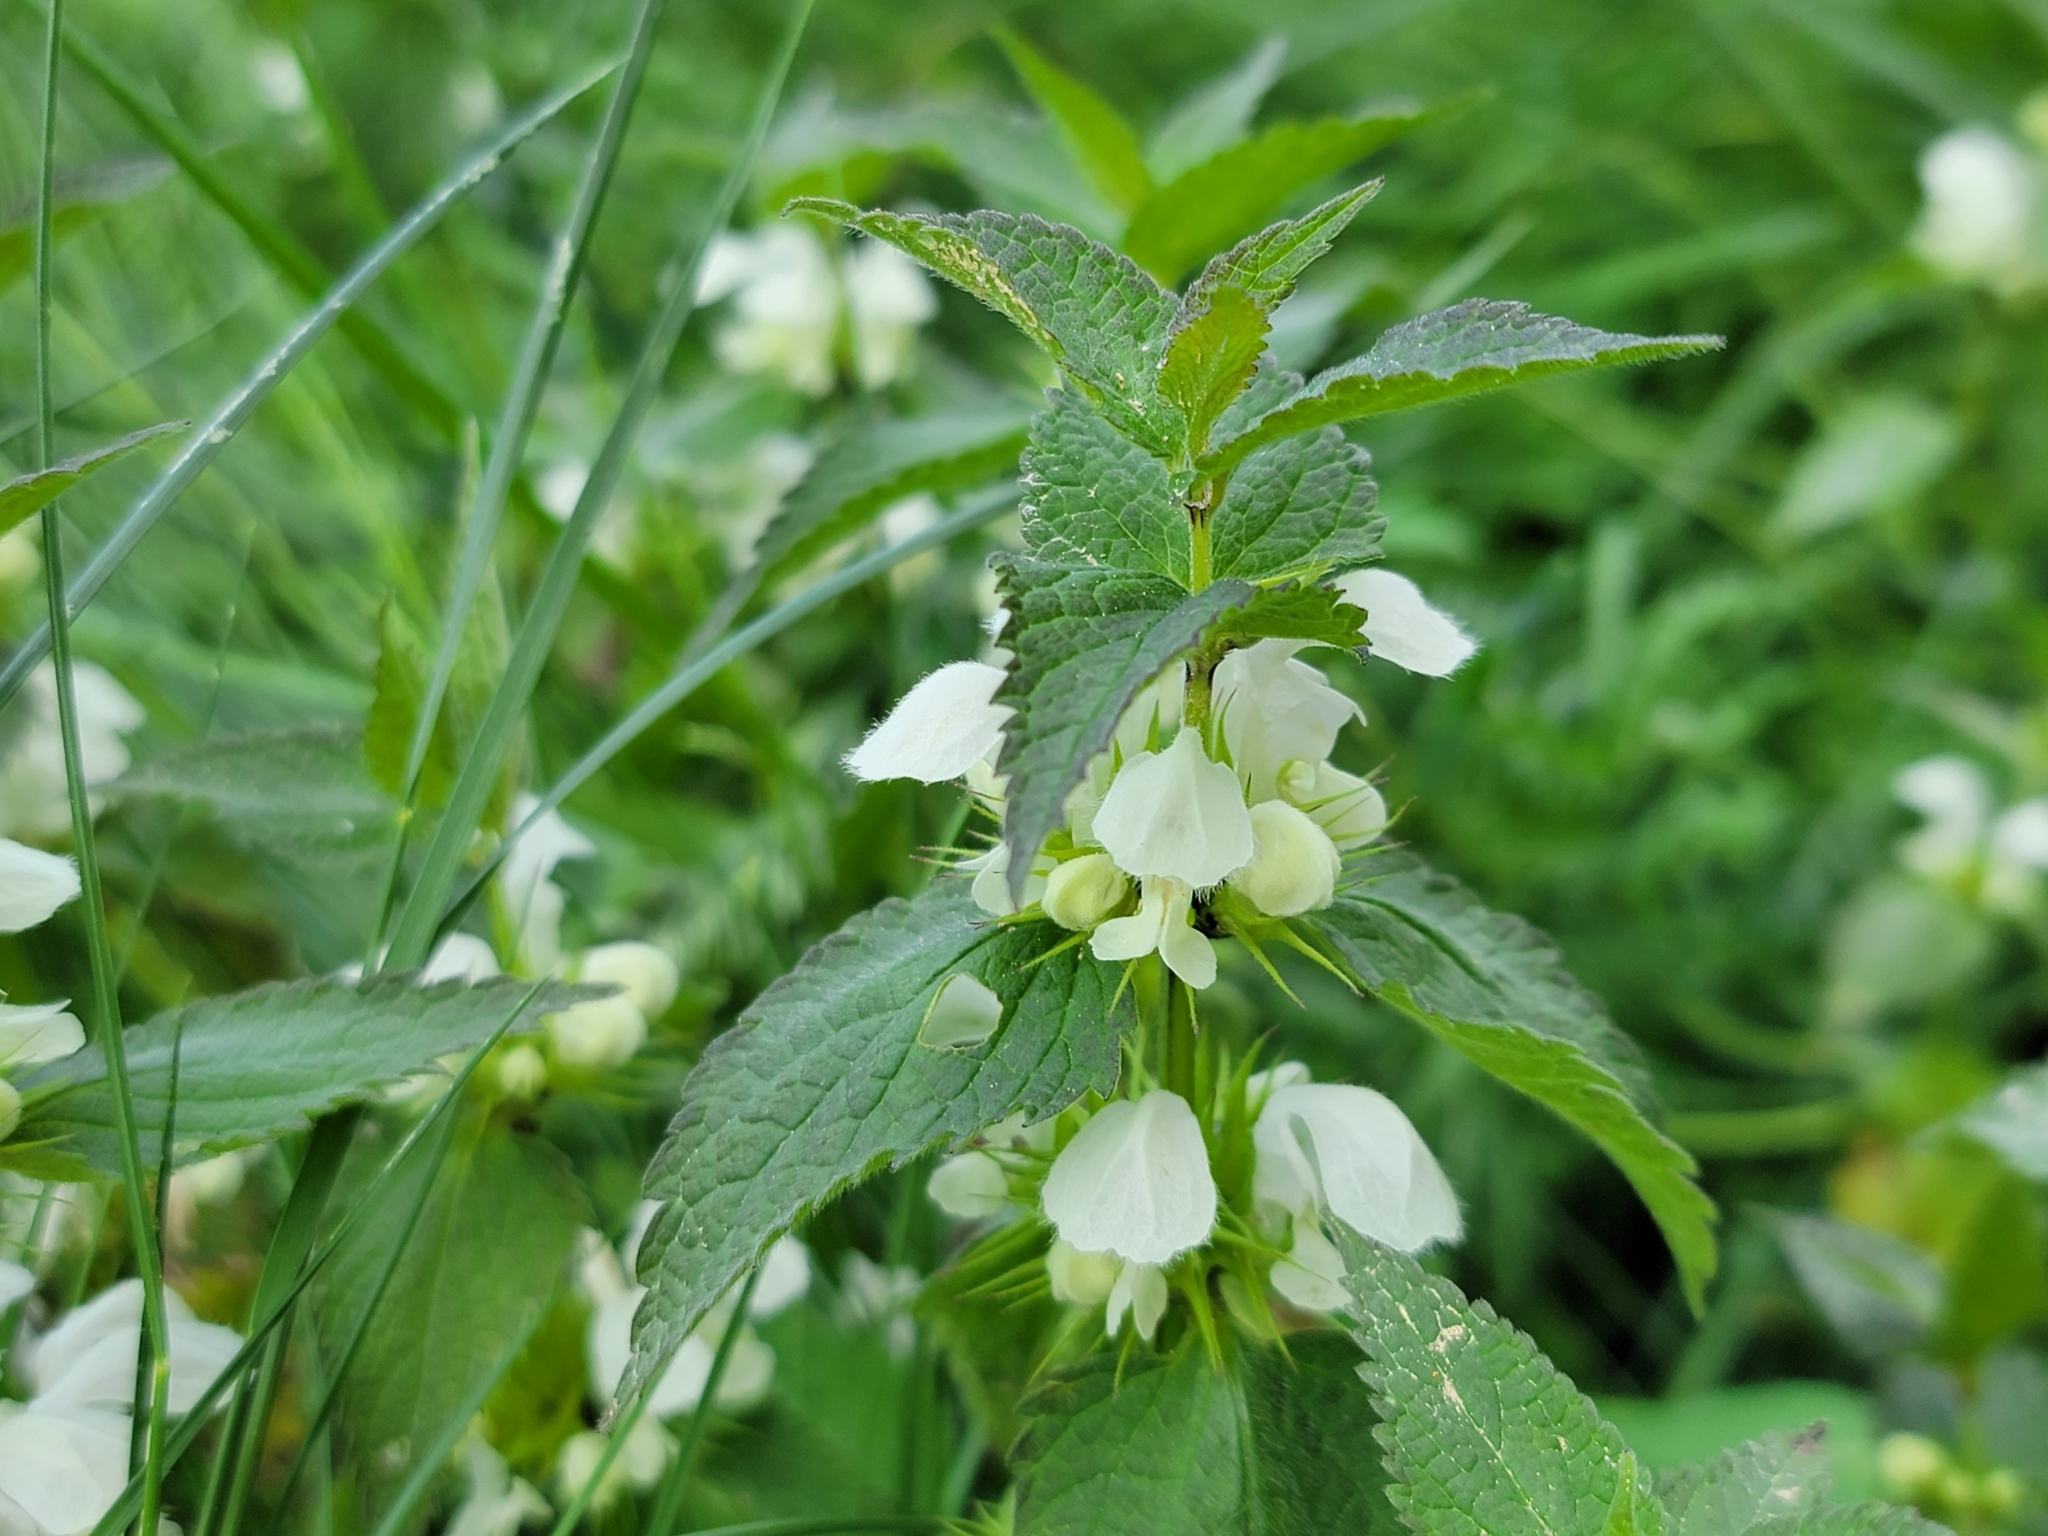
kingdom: Plantae
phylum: Tracheophyta
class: Magnoliopsida
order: Lamiales
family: Lamiaceae
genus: Lamium
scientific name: Lamium album
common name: White dead-nettle
